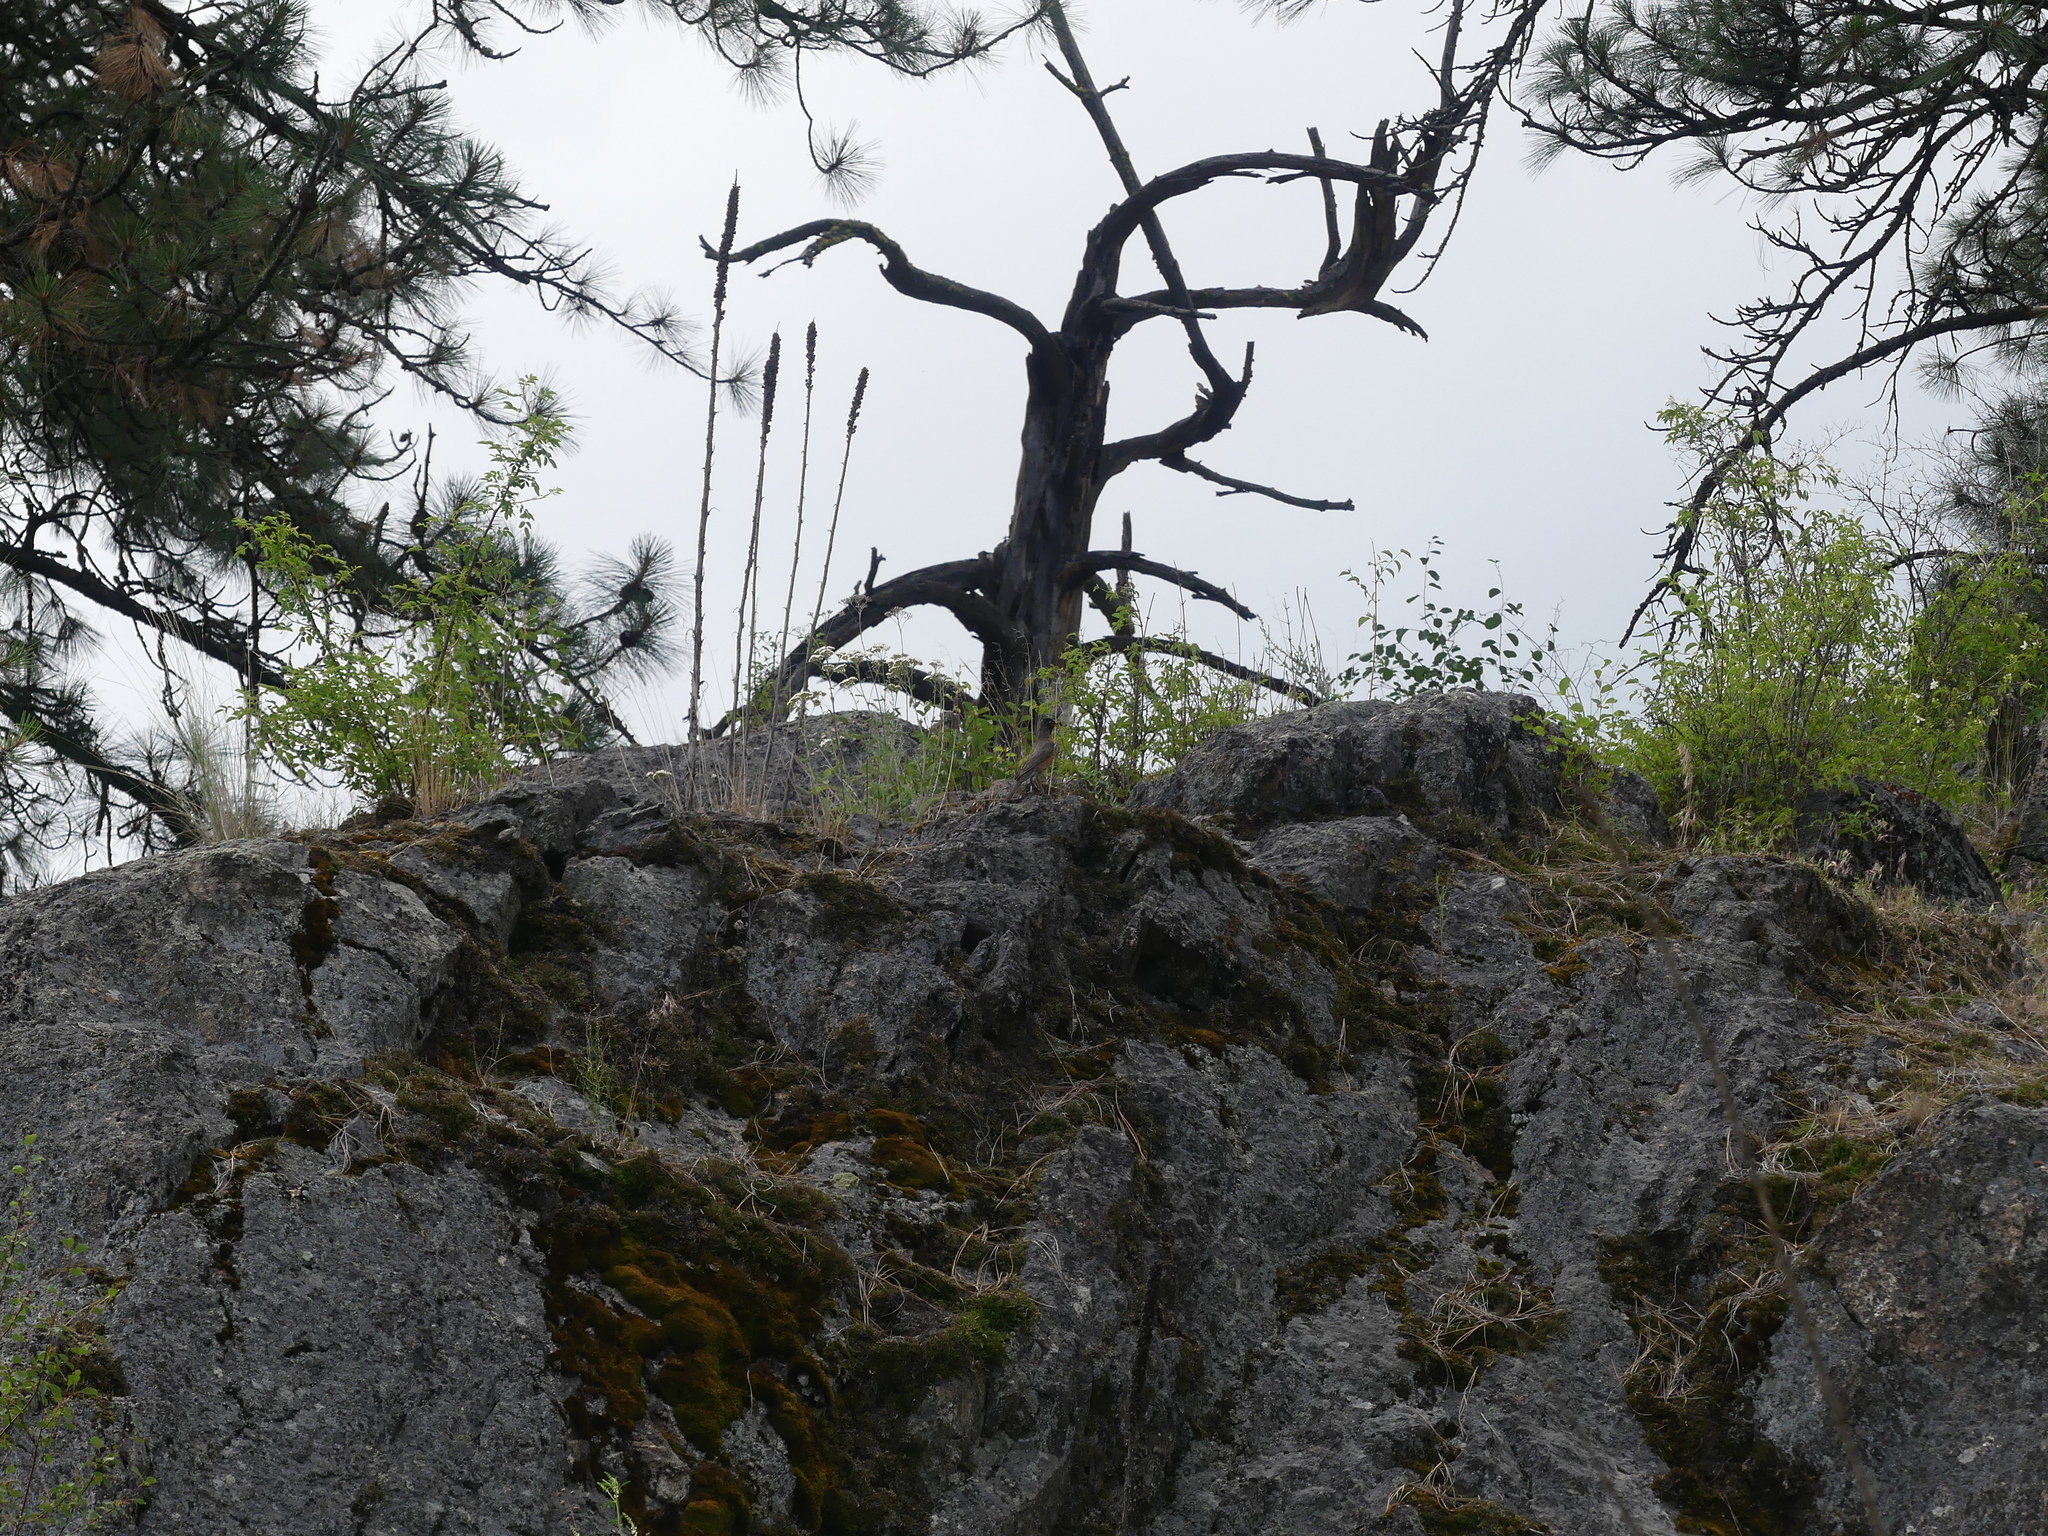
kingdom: Animalia
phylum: Chordata
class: Aves
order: Passeriformes
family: Turdidae
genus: Turdus
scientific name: Turdus migratorius
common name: American robin
